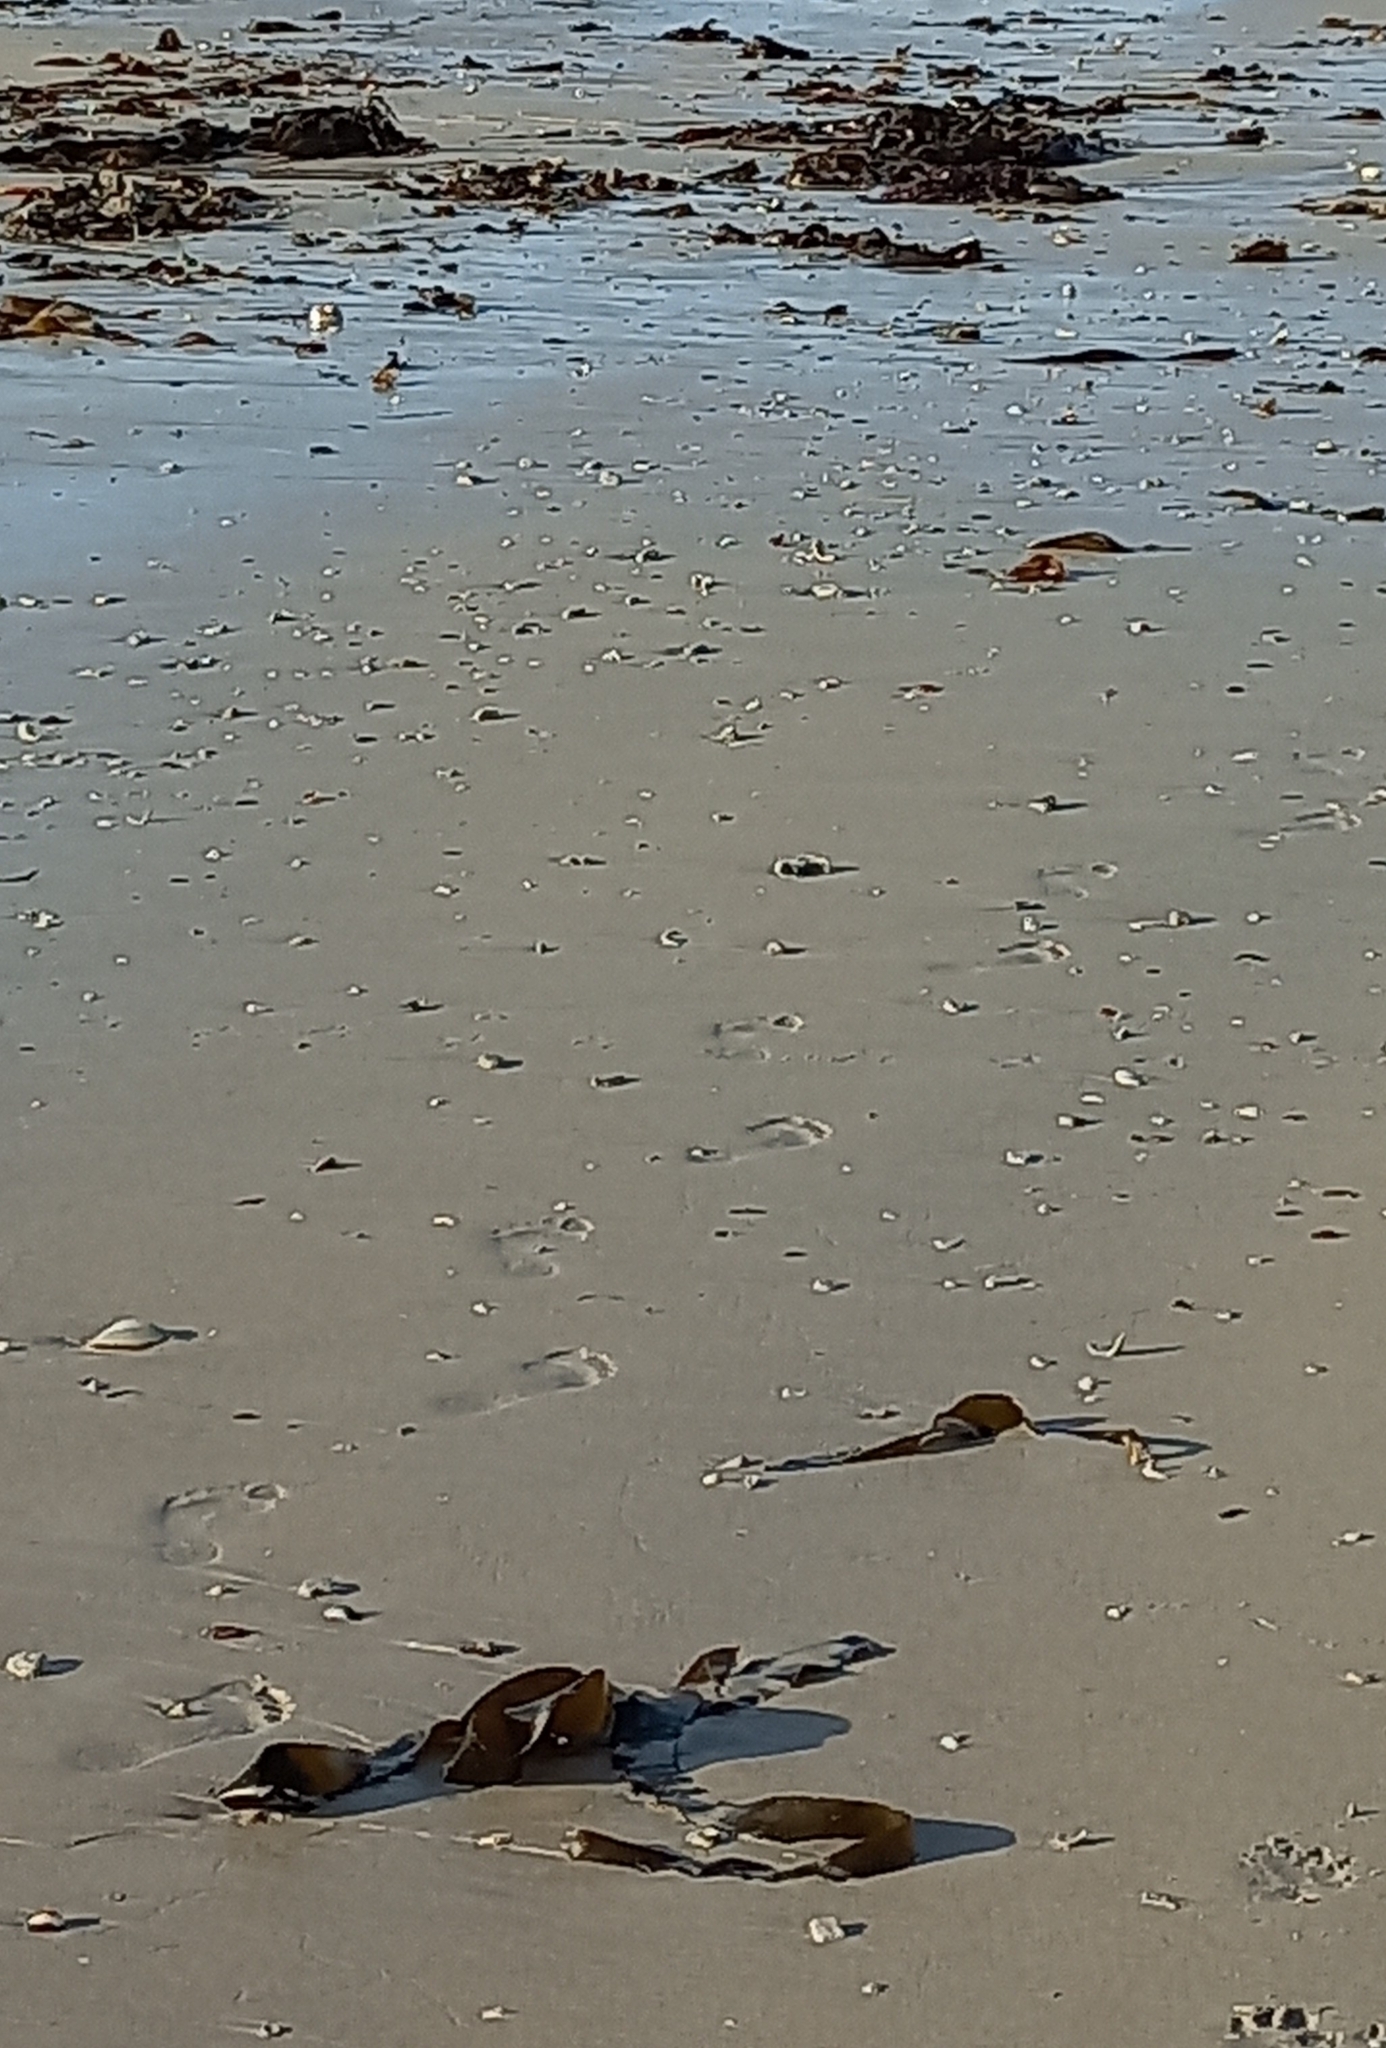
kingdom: Chromista
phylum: Ochrophyta
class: Phaeophyceae
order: Laminariales
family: Lessoniaceae
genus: Ecklonia
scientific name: Ecklonia
